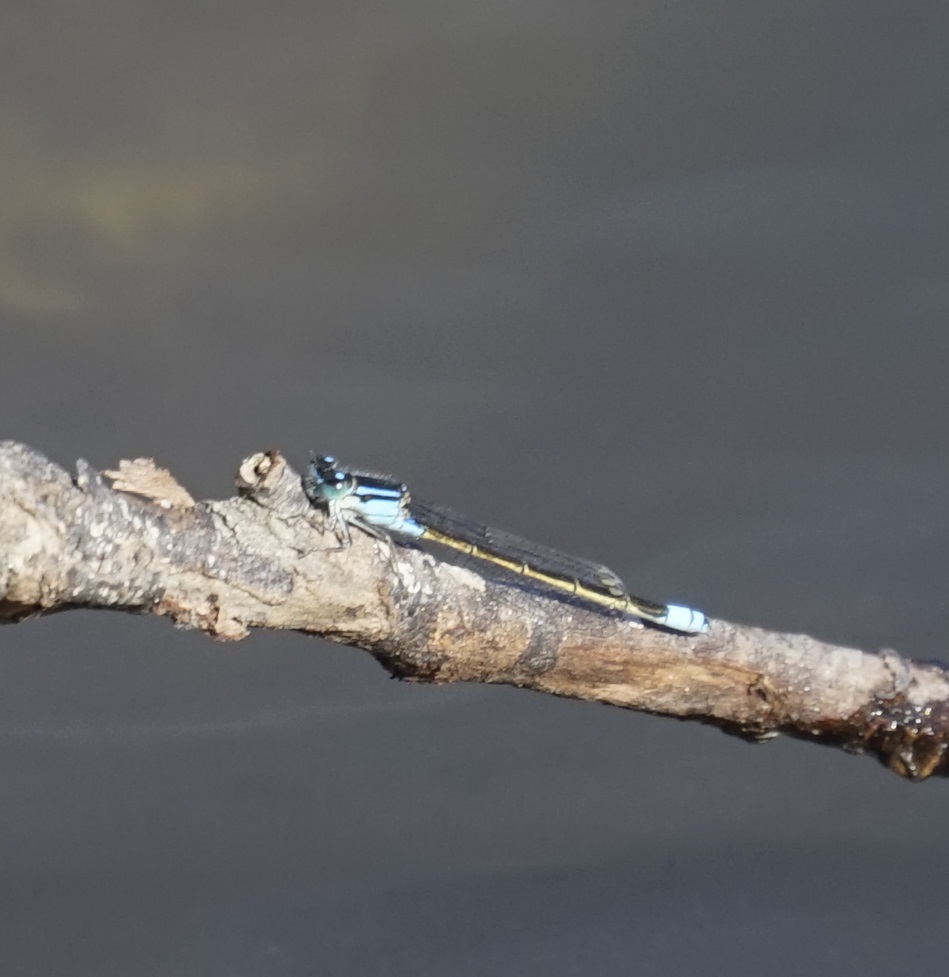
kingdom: Animalia
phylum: Arthropoda
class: Insecta
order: Odonata
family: Coenagrionidae
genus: Ischnura
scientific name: Ischnura heterosticta
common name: Common bluetail
